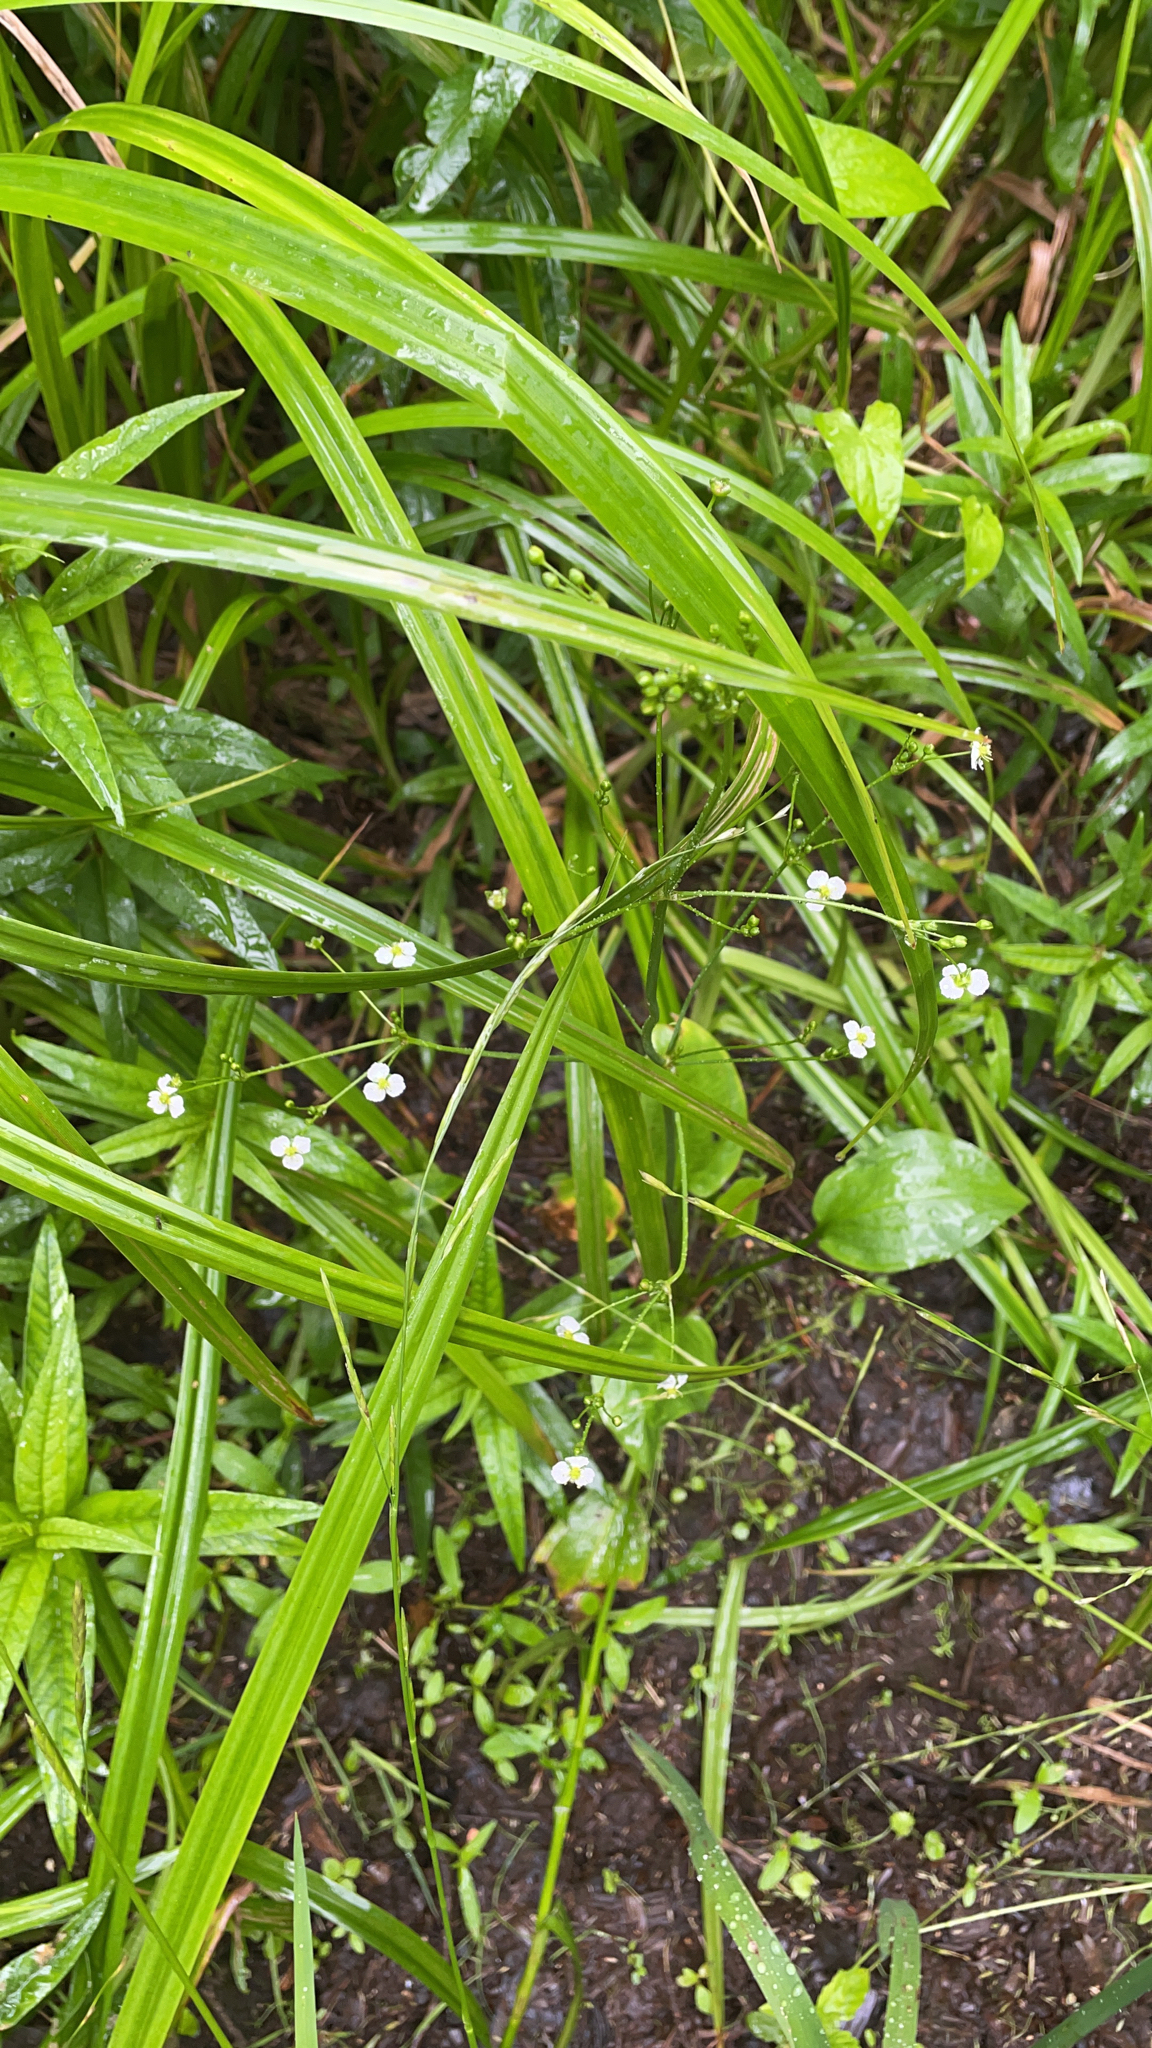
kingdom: Plantae
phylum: Tracheophyta
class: Liliopsida
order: Alismatales
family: Alismataceae
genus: Alisma
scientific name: Alisma plantago-aquatica
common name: Water-plantain
